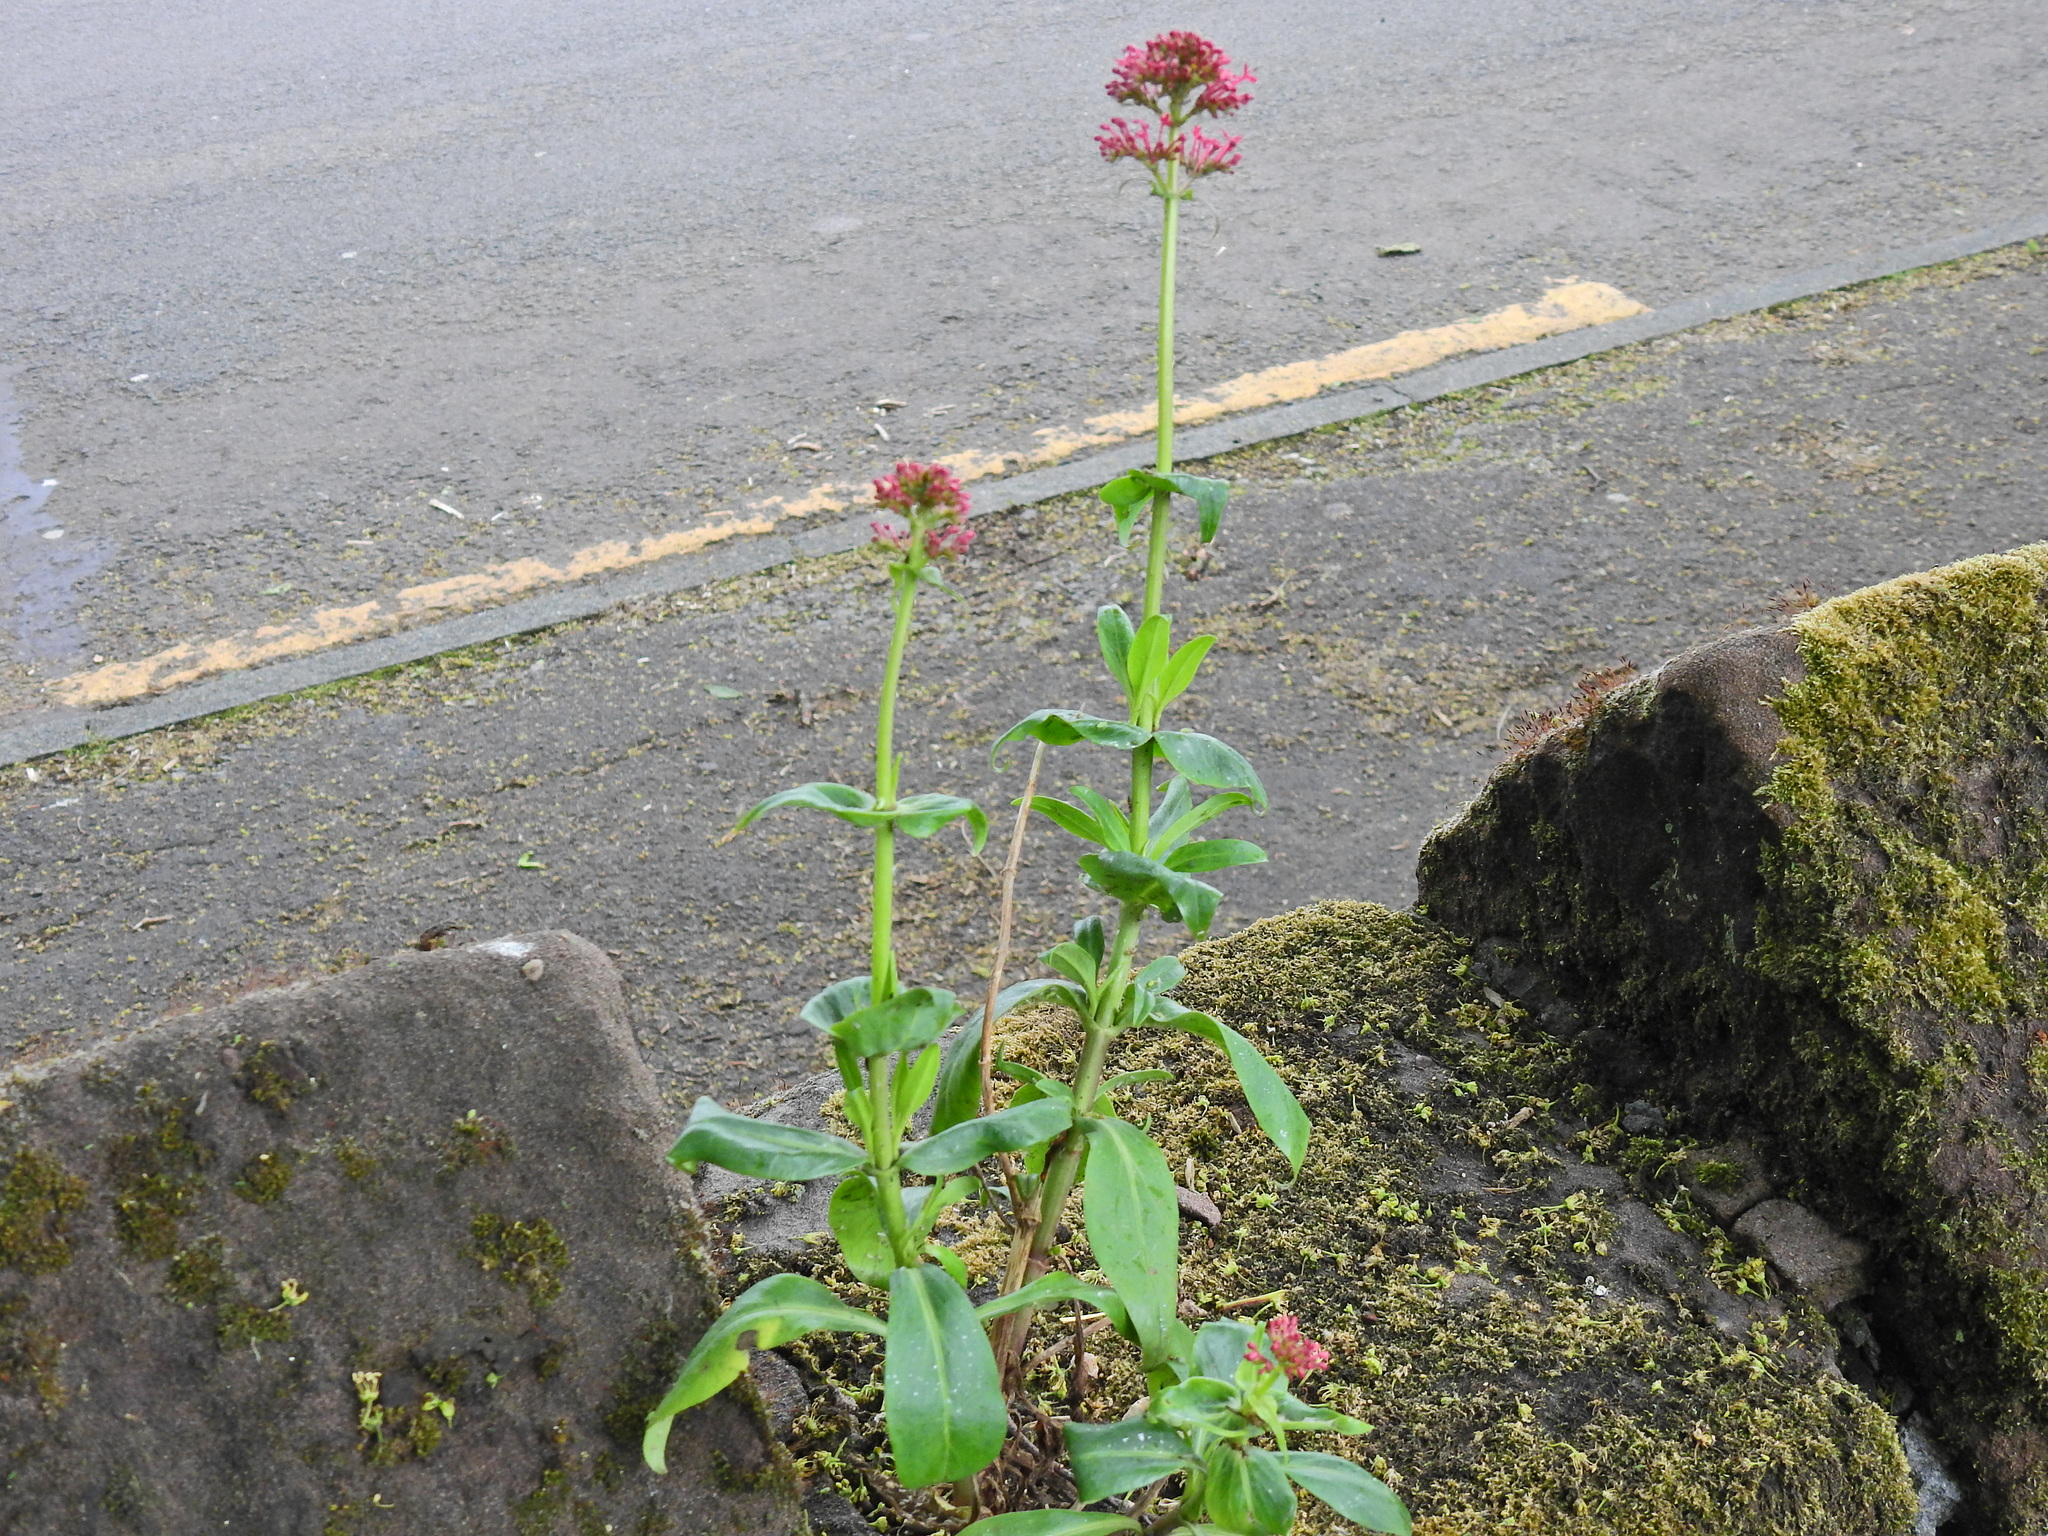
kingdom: Plantae
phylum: Tracheophyta
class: Magnoliopsida
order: Dipsacales
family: Caprifoliaceae
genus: Centranthus
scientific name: Centranthus ruber
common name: Red valerian
